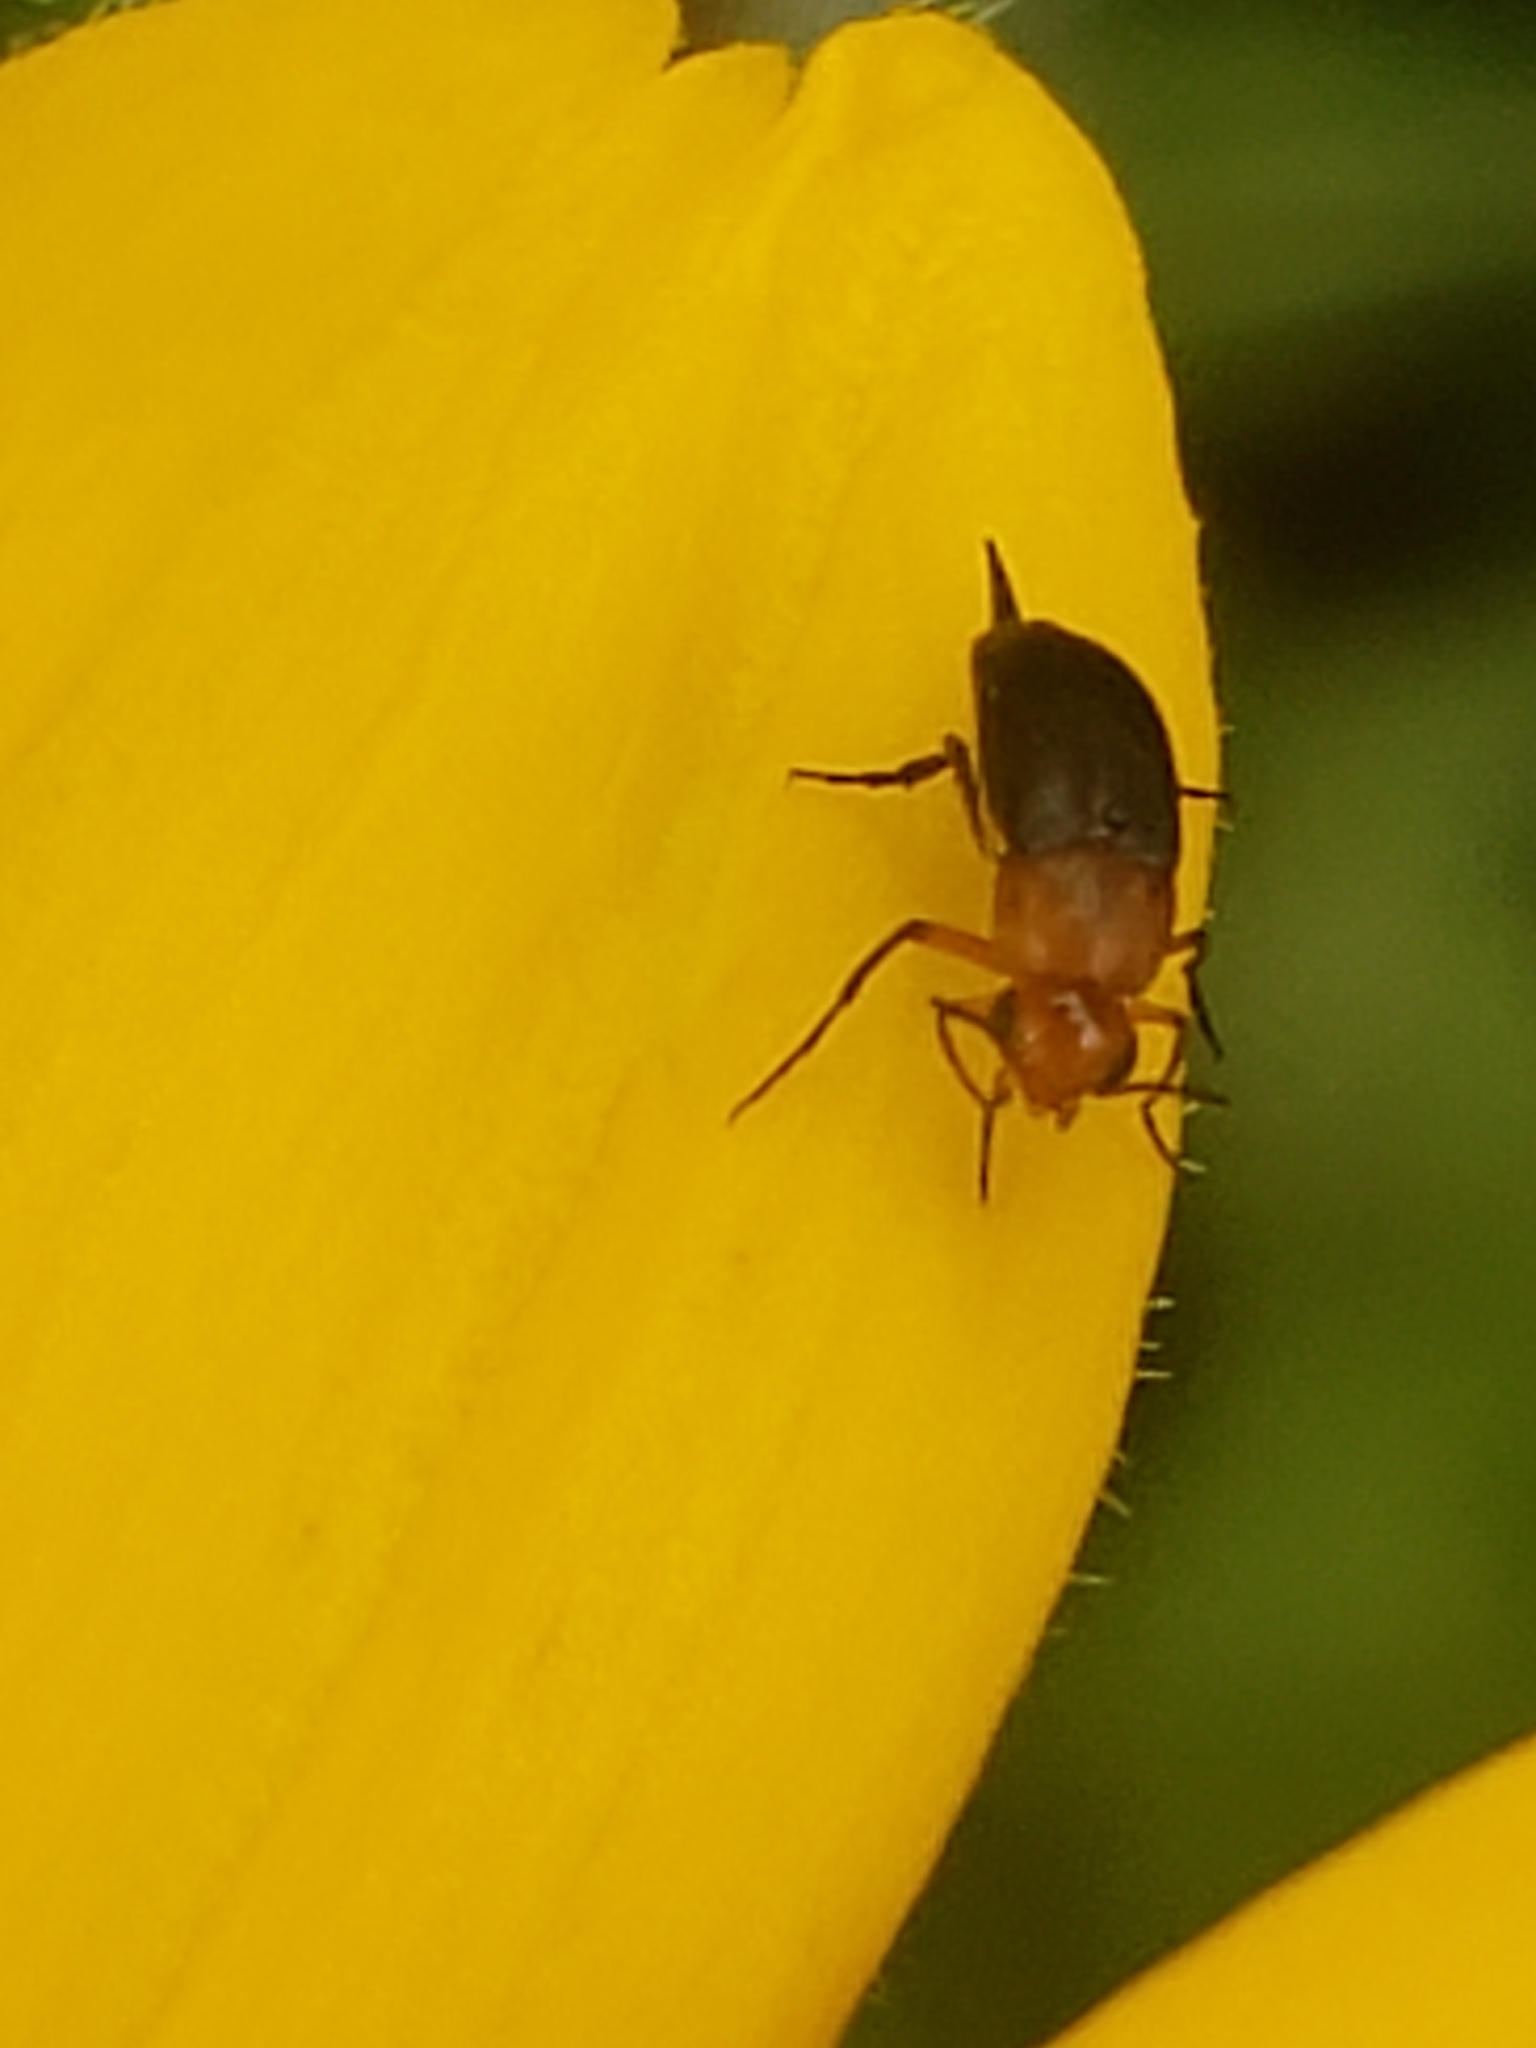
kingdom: Animalia
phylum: Arthropoda
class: Insecta
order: Coleoptera
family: Mordellidae
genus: Mordellistena
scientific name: Mordellistena cervicalis
